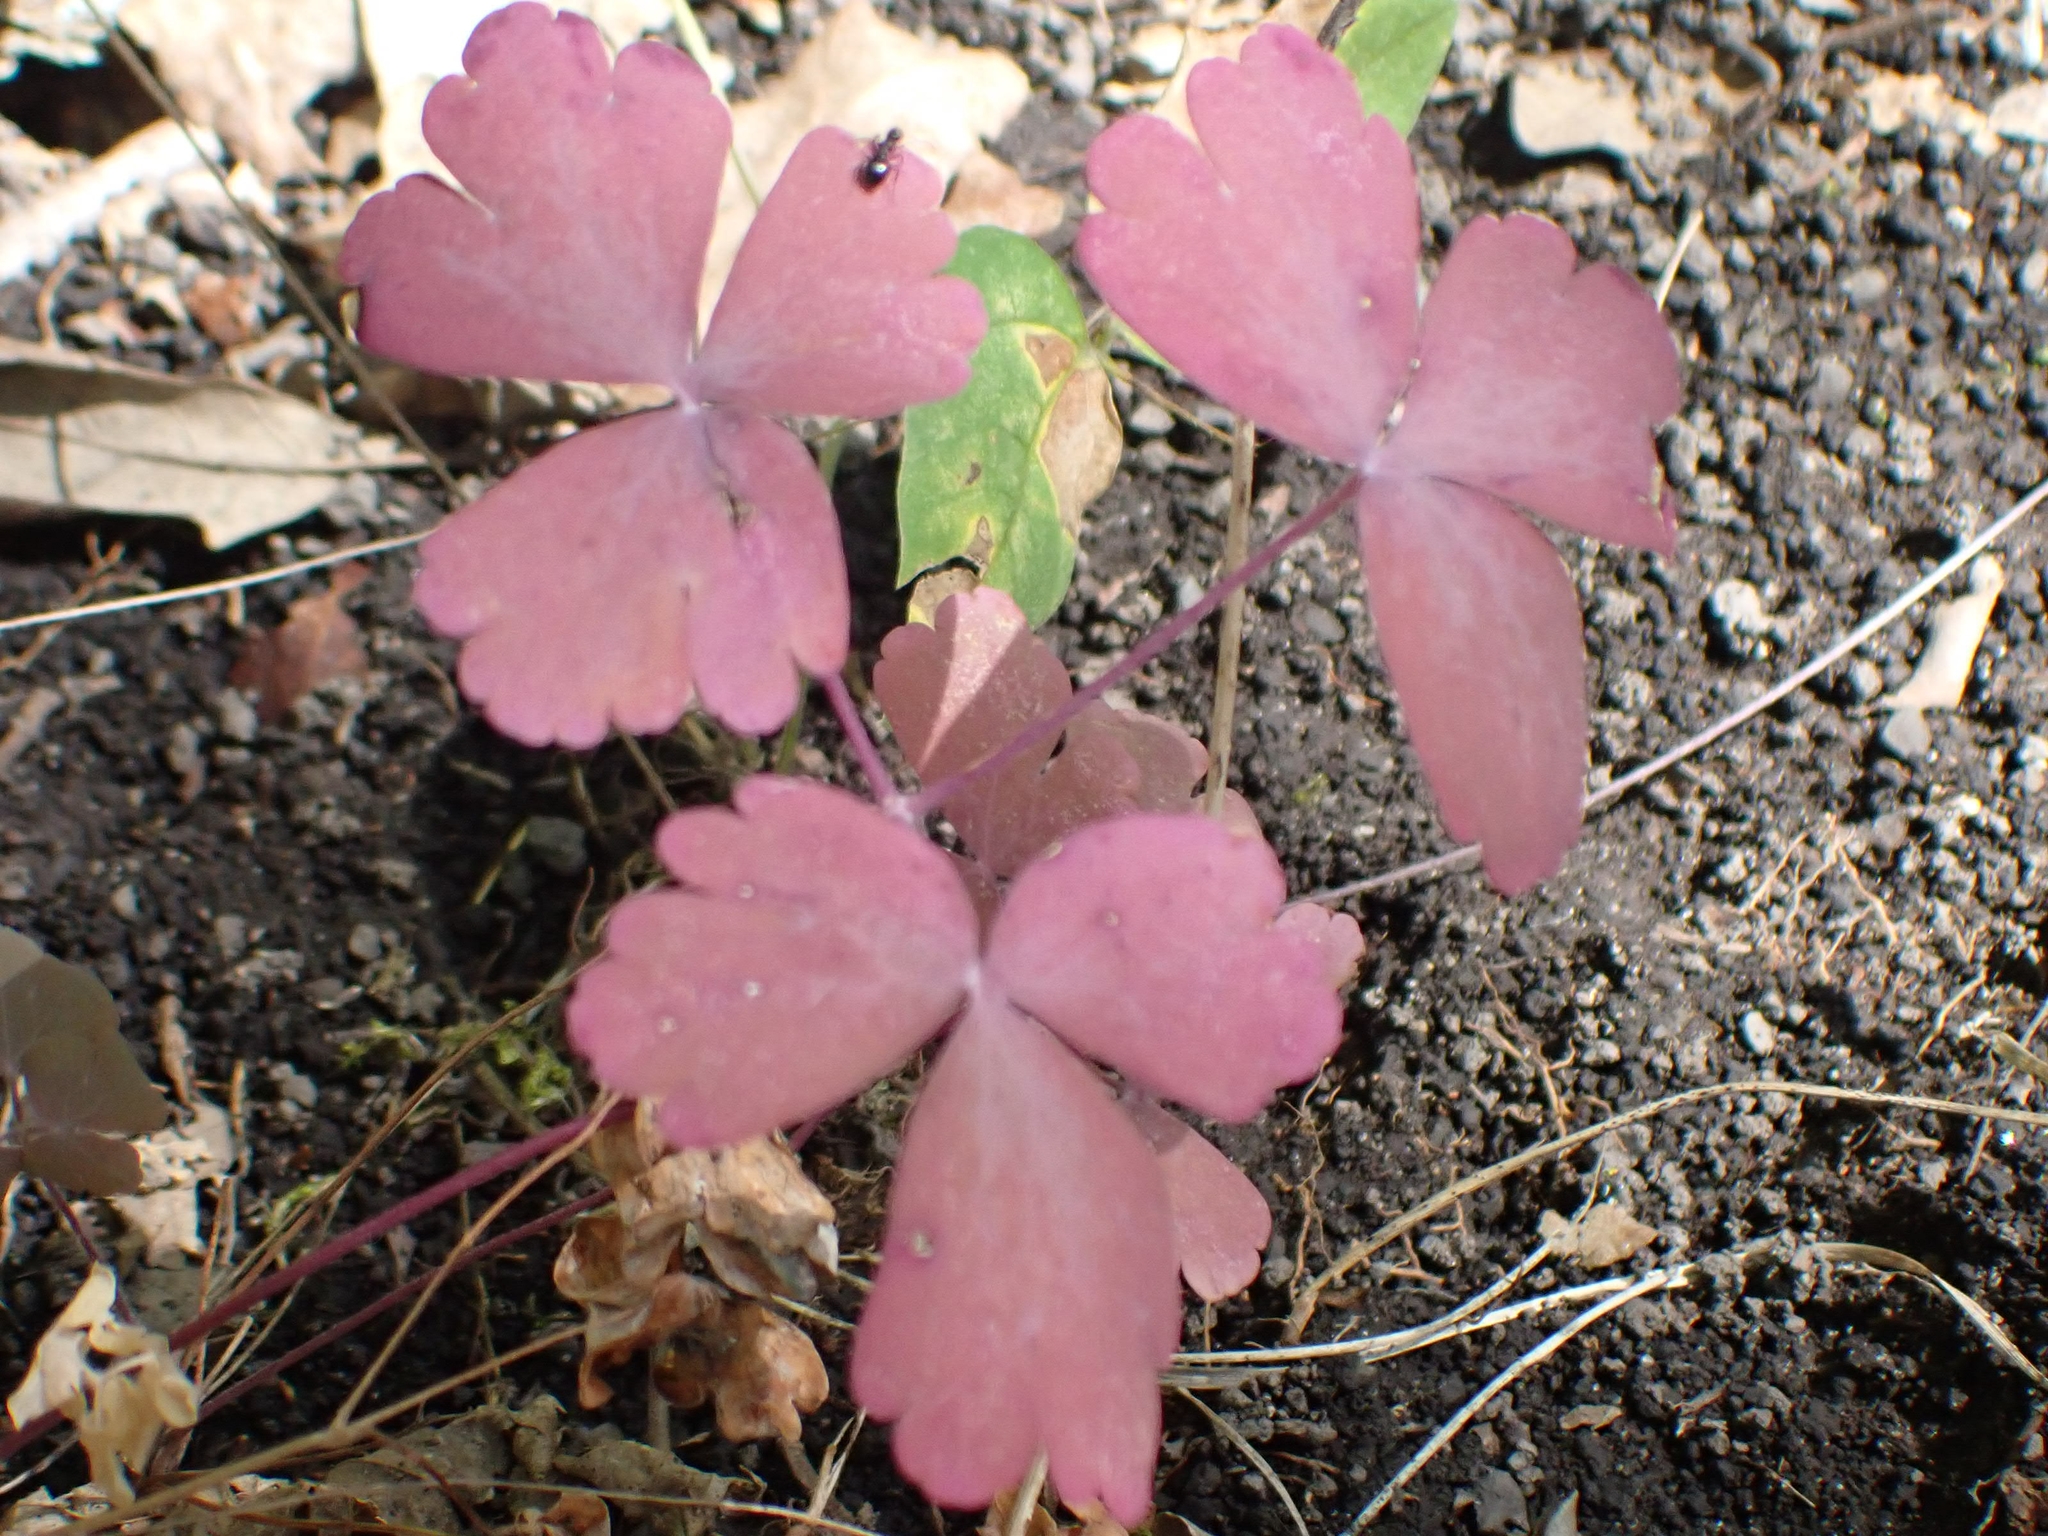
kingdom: Plantae
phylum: Tracheophyta
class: Magnoliopsida
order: Ranunculales
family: Ranunculaceae
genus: Aquilegia
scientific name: Aquilegia canadensis
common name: American columbine
